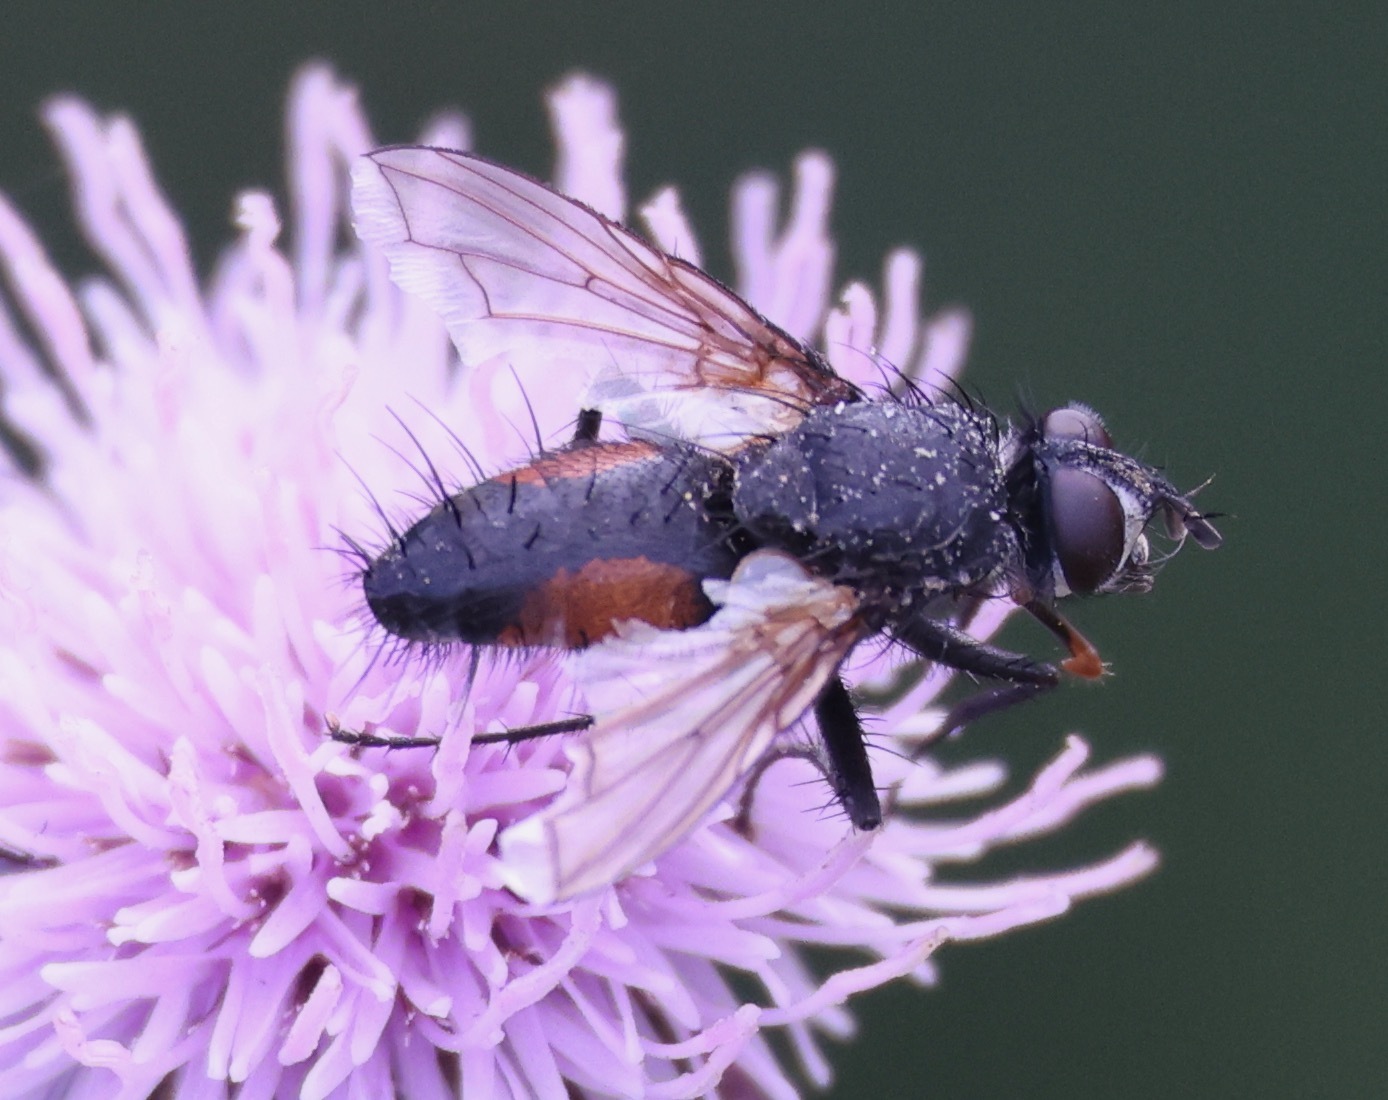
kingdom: Animalia
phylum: Arthropoda
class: Insecta
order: Diptera
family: Tachinidae
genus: Eriothrix
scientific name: Eriothrix rufomaculatus
